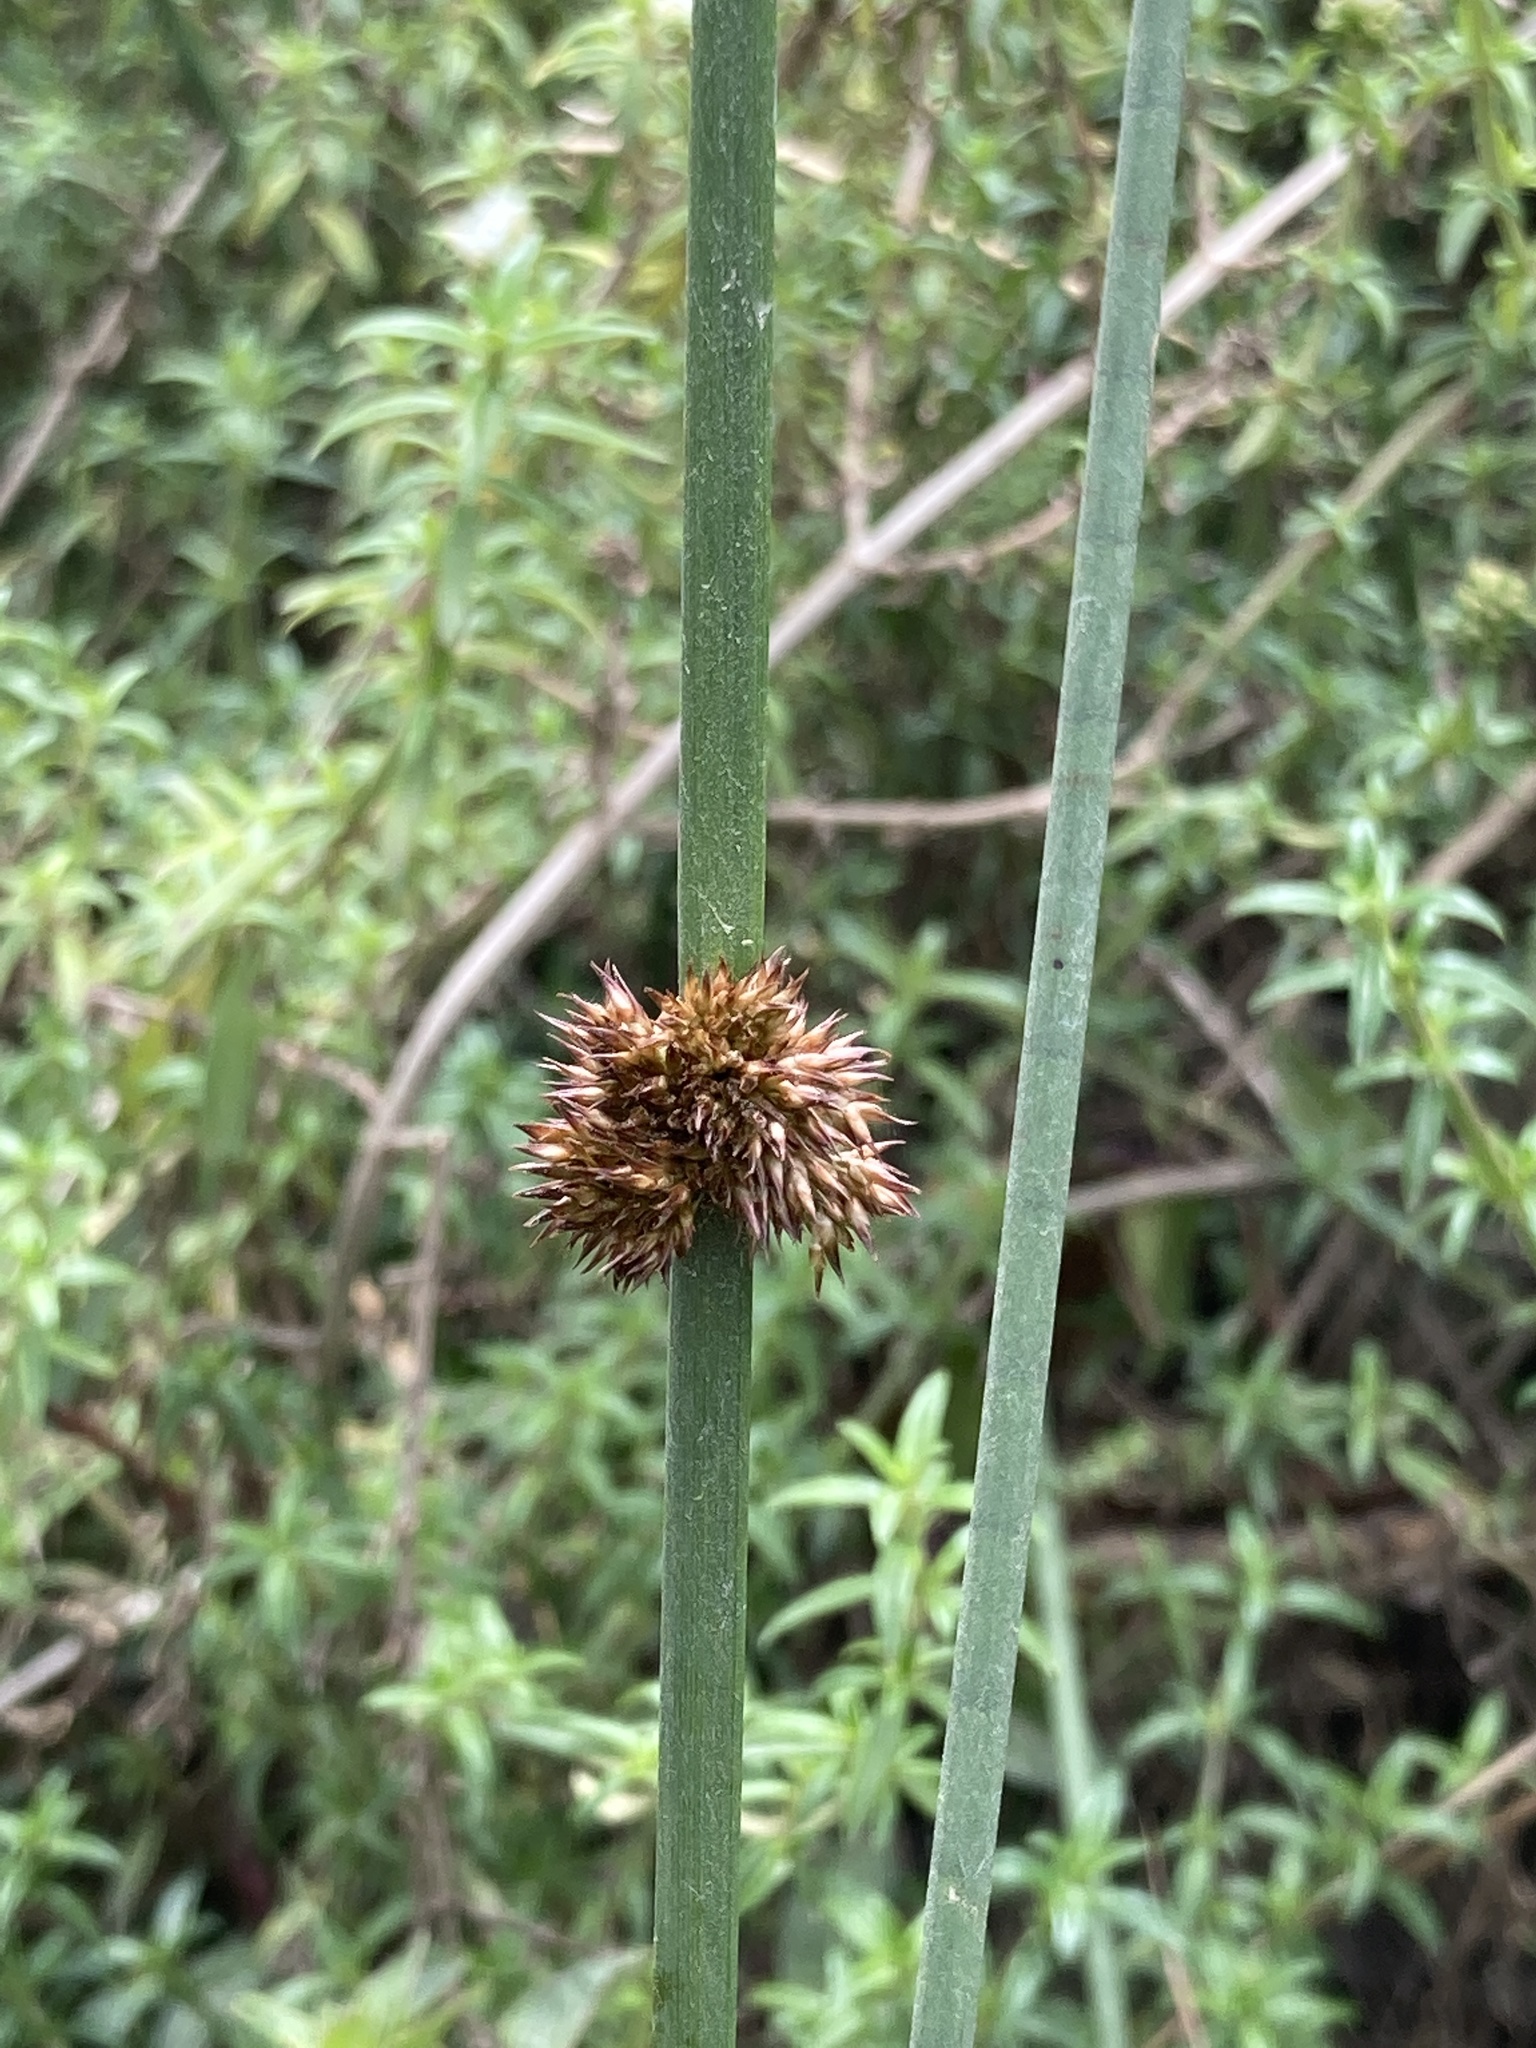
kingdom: Plantae
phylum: Tracheophyta
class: Liliopsida
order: Poales
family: Juncaceae
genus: Juncus
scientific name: Juncus effusus
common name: Soft rush
